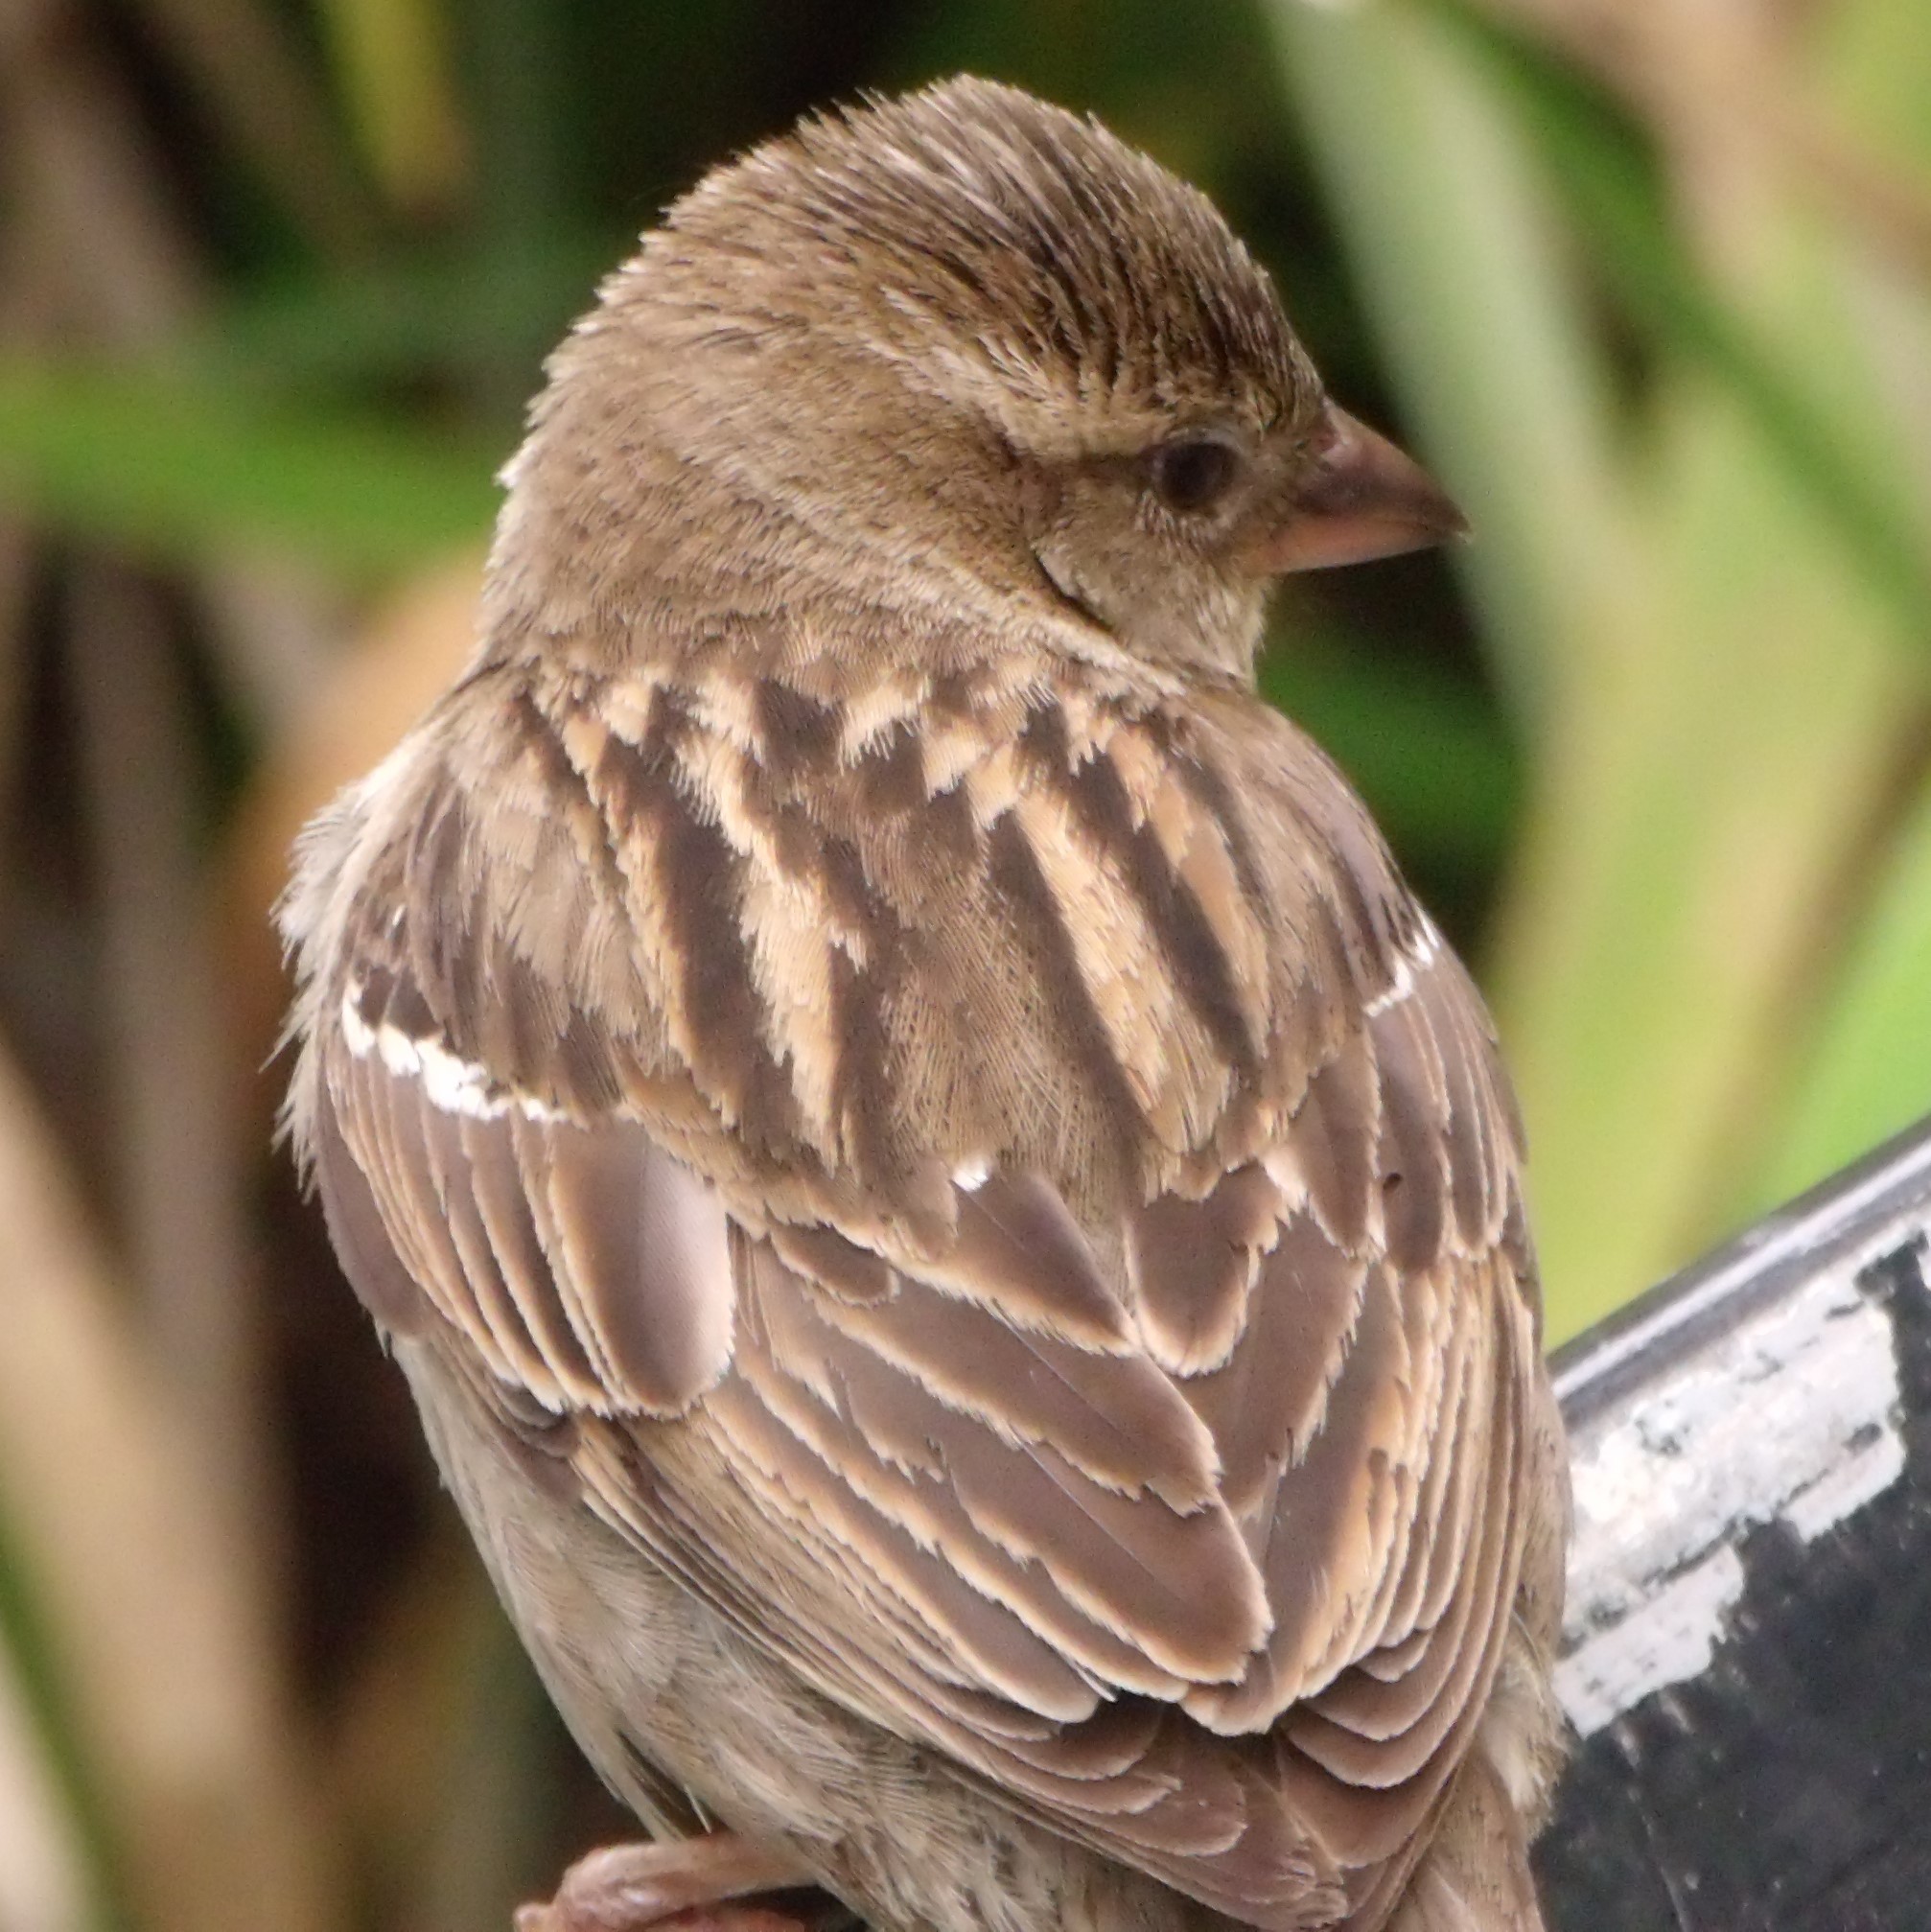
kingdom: Animalia
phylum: Chordata
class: Aves
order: Passeriformes
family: Passeridae
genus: Passer
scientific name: Passer domesticus
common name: House sparrow
